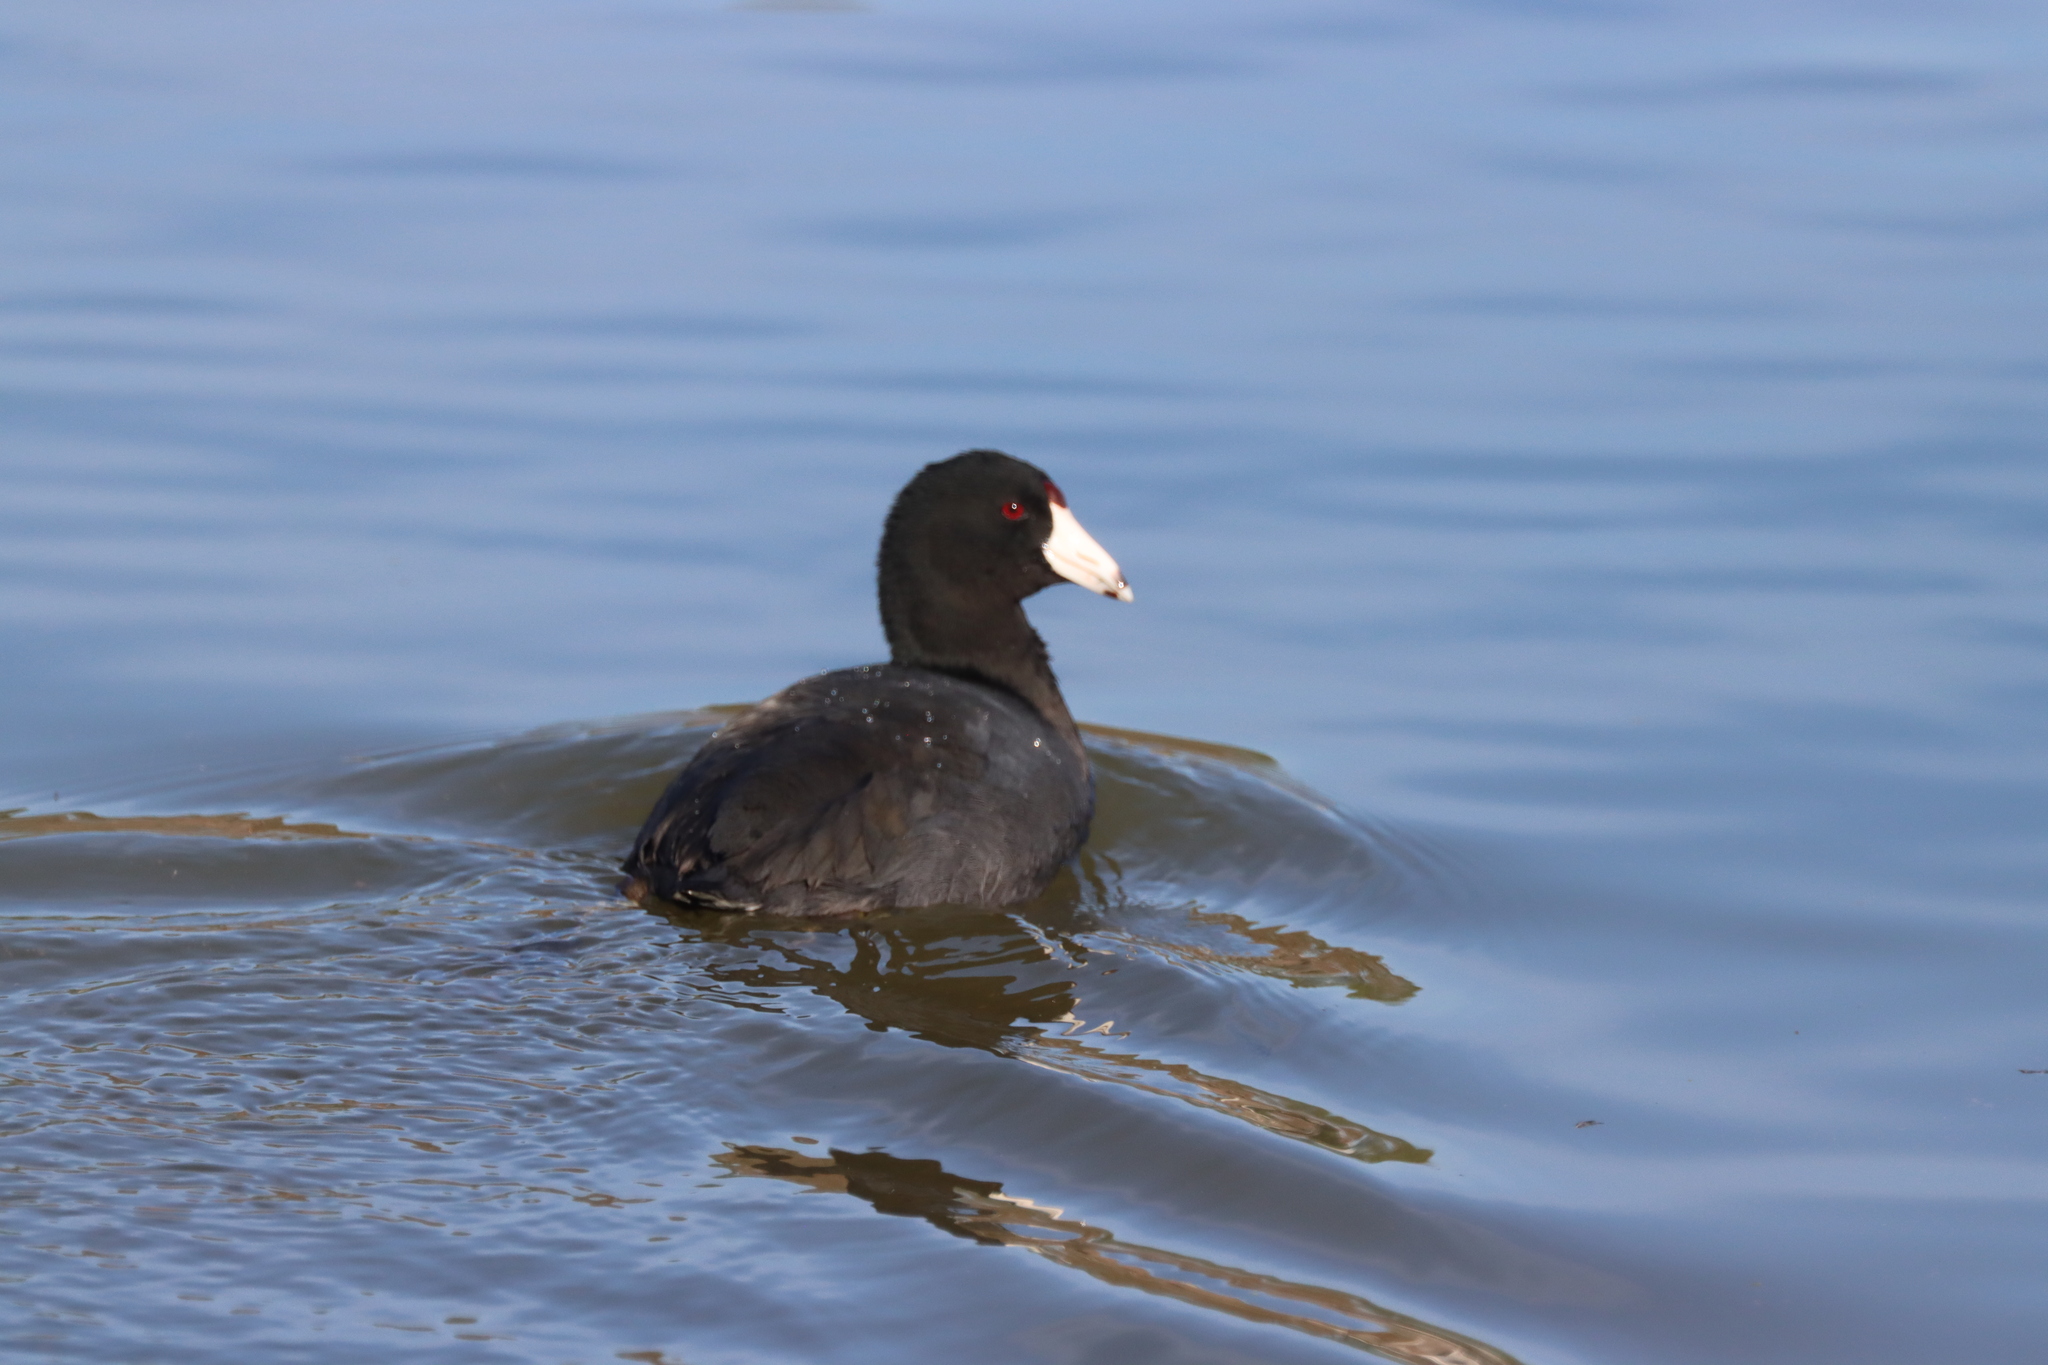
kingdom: Animalia
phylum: Chordata
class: Aves
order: Gruiformes
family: Rallidae
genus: Fulica
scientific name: Fulica americana
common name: American coot
